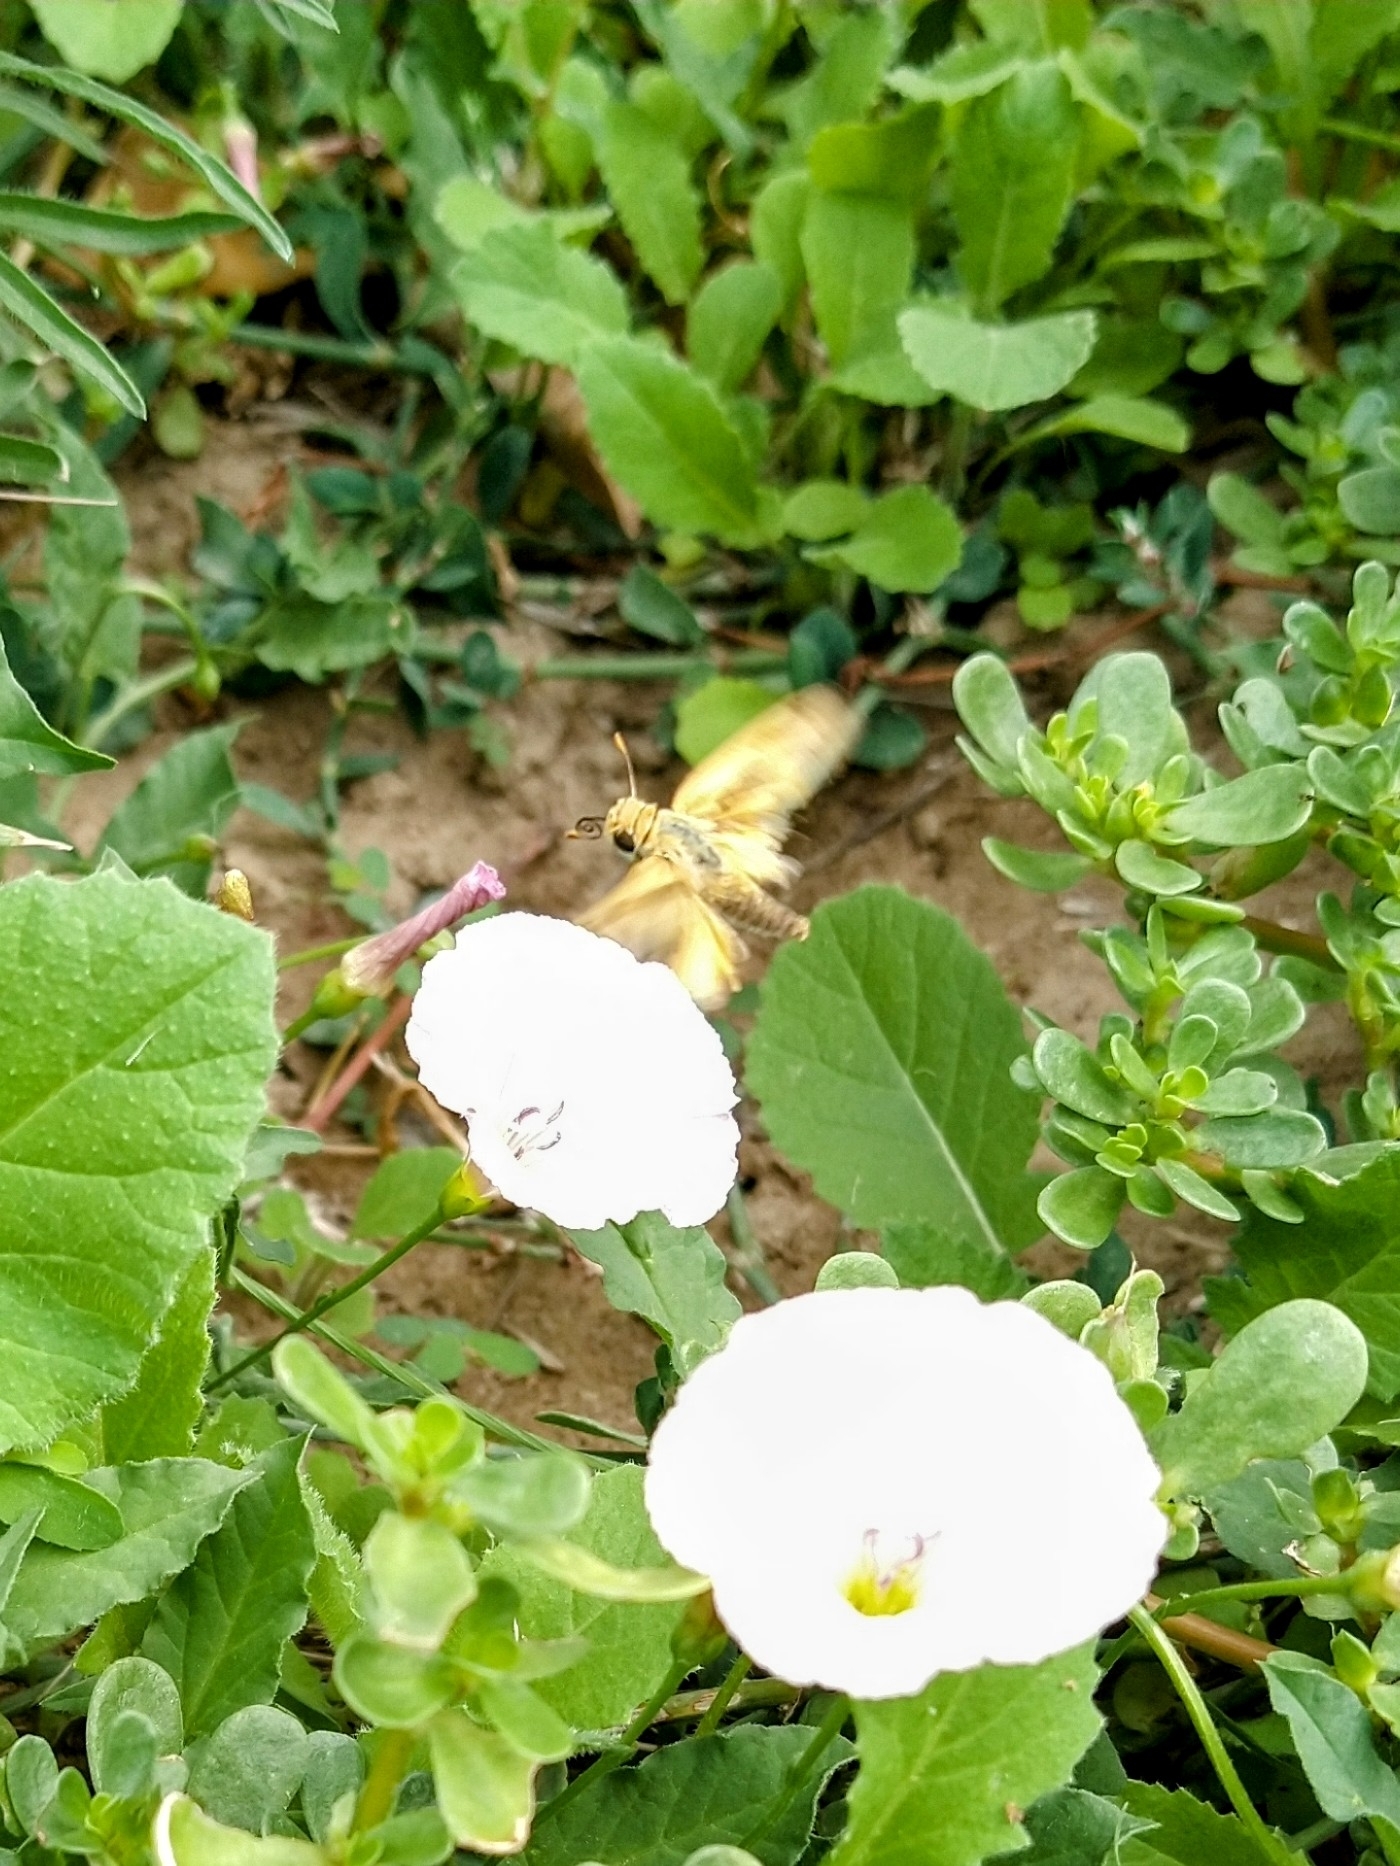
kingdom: Animalia
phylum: Arthropoda
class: Insecta
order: Lepidoptera
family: Hesperiidae
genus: Hylephila
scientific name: Hylephila phyleus
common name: Fiery skipper
